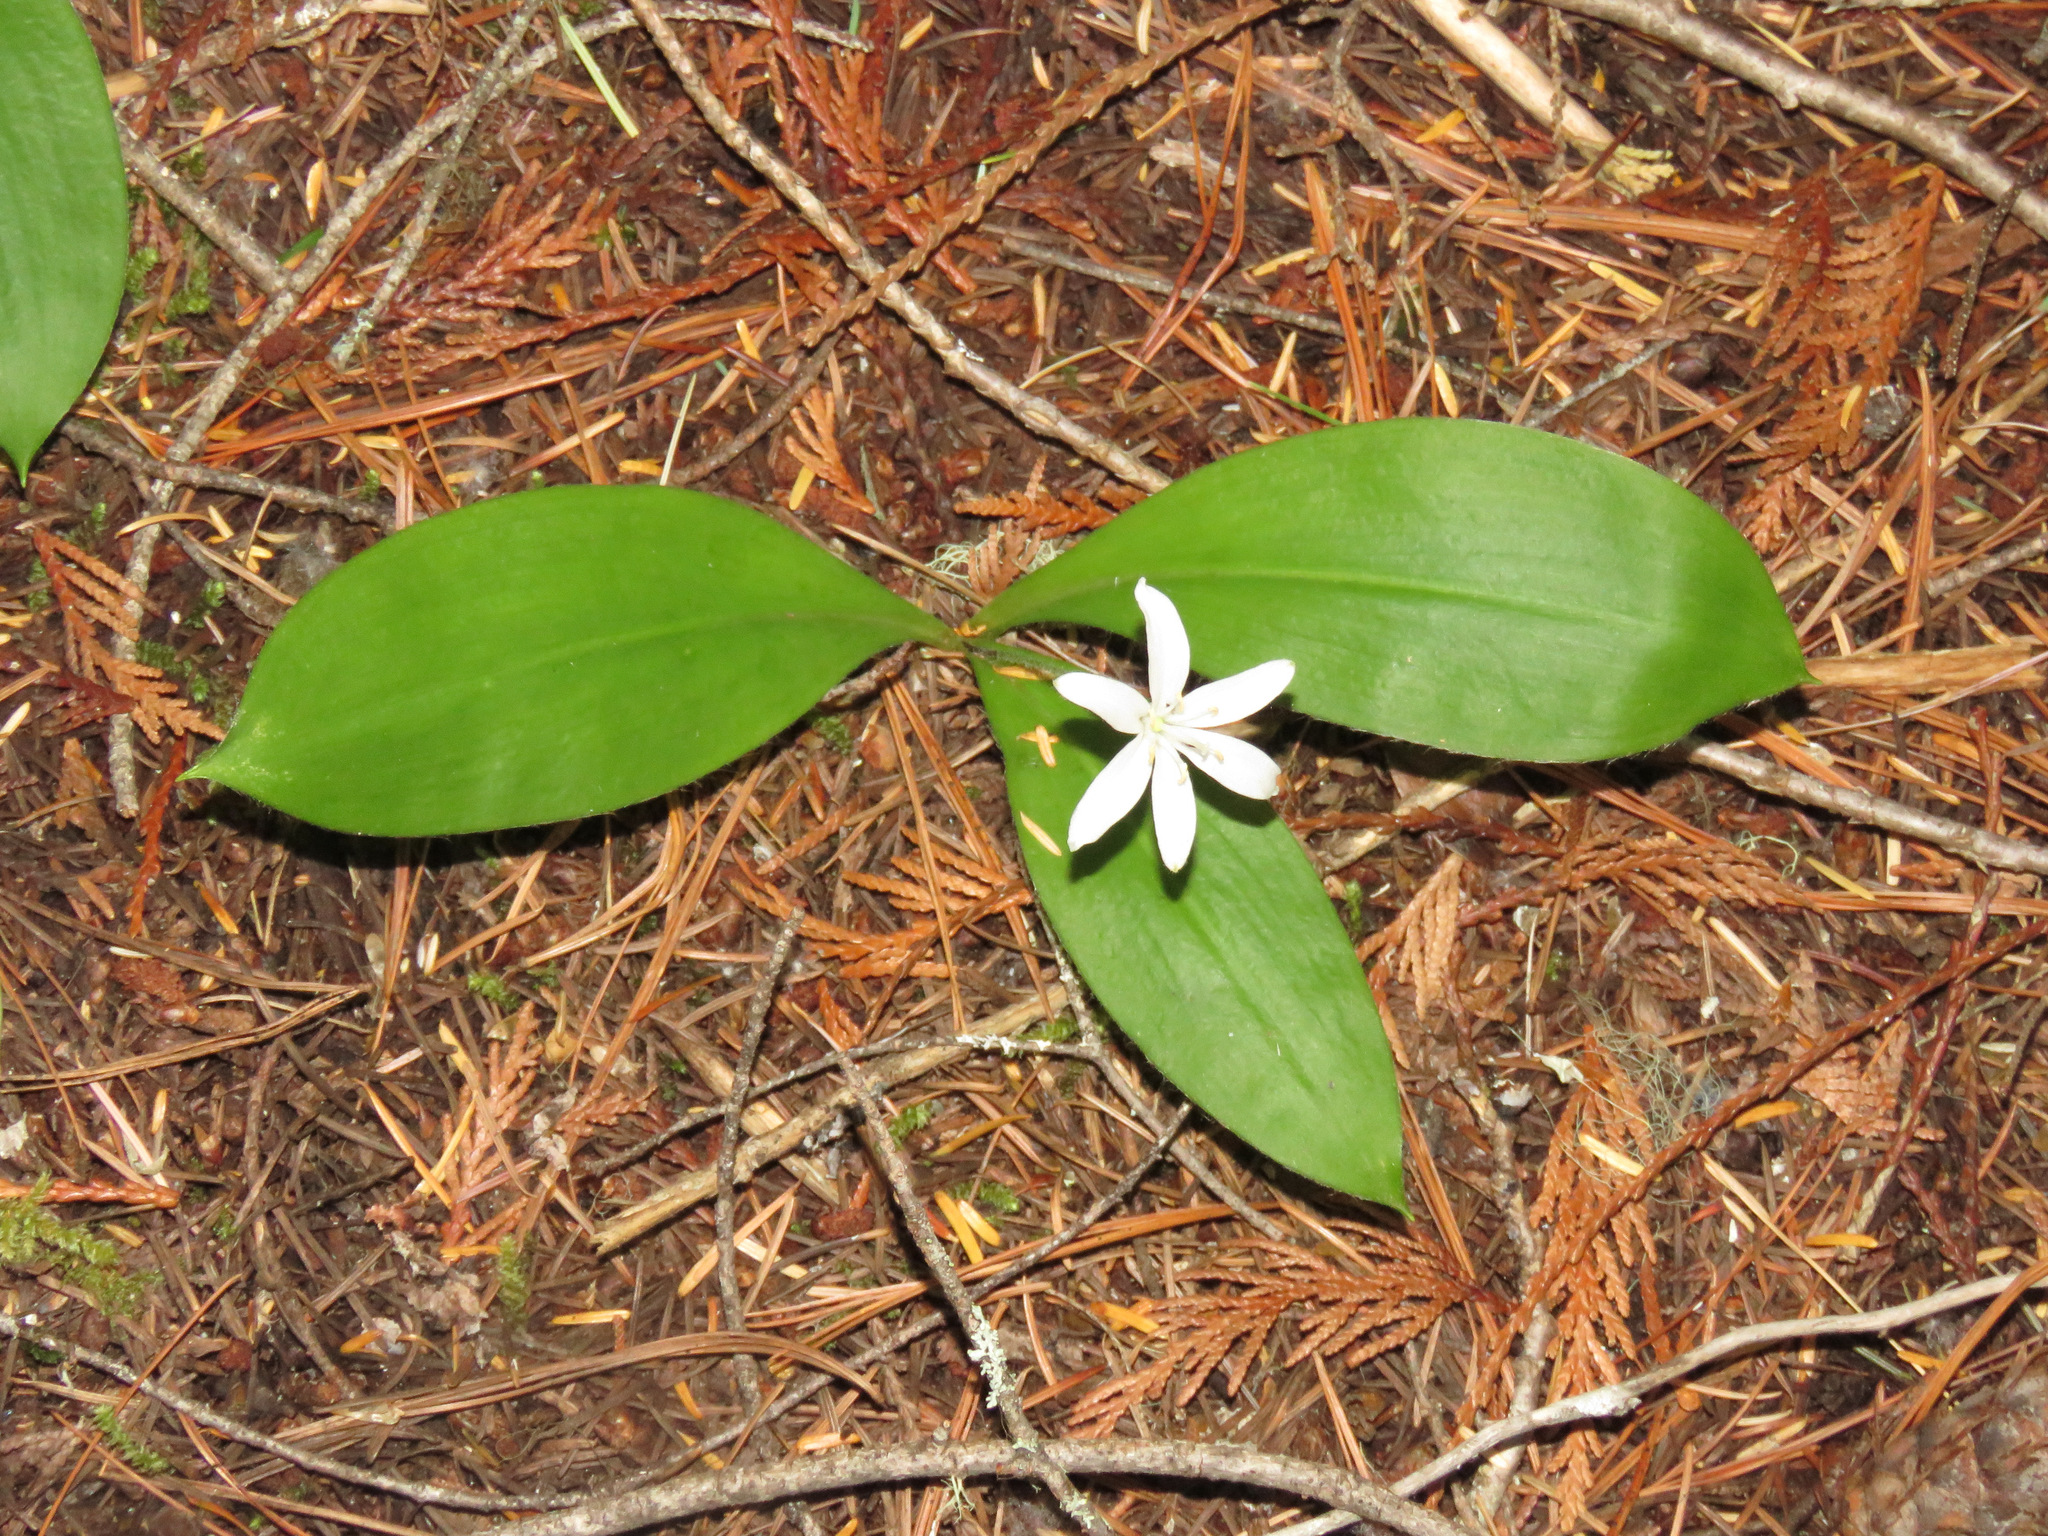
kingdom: Plantae
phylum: Tracheophyta
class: Liliopsida
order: Liliales
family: Liliaceae
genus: Clintonia
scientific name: Clintonia uniflora
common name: Queen's cup
